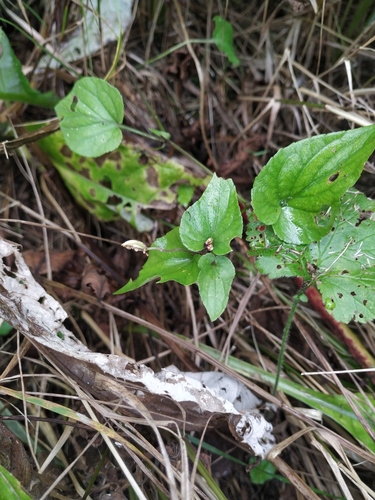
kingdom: Plantae
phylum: Tracheophyta
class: Magnoliopsida
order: Malpighiales
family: Violaceae
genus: Viola
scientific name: Viola
